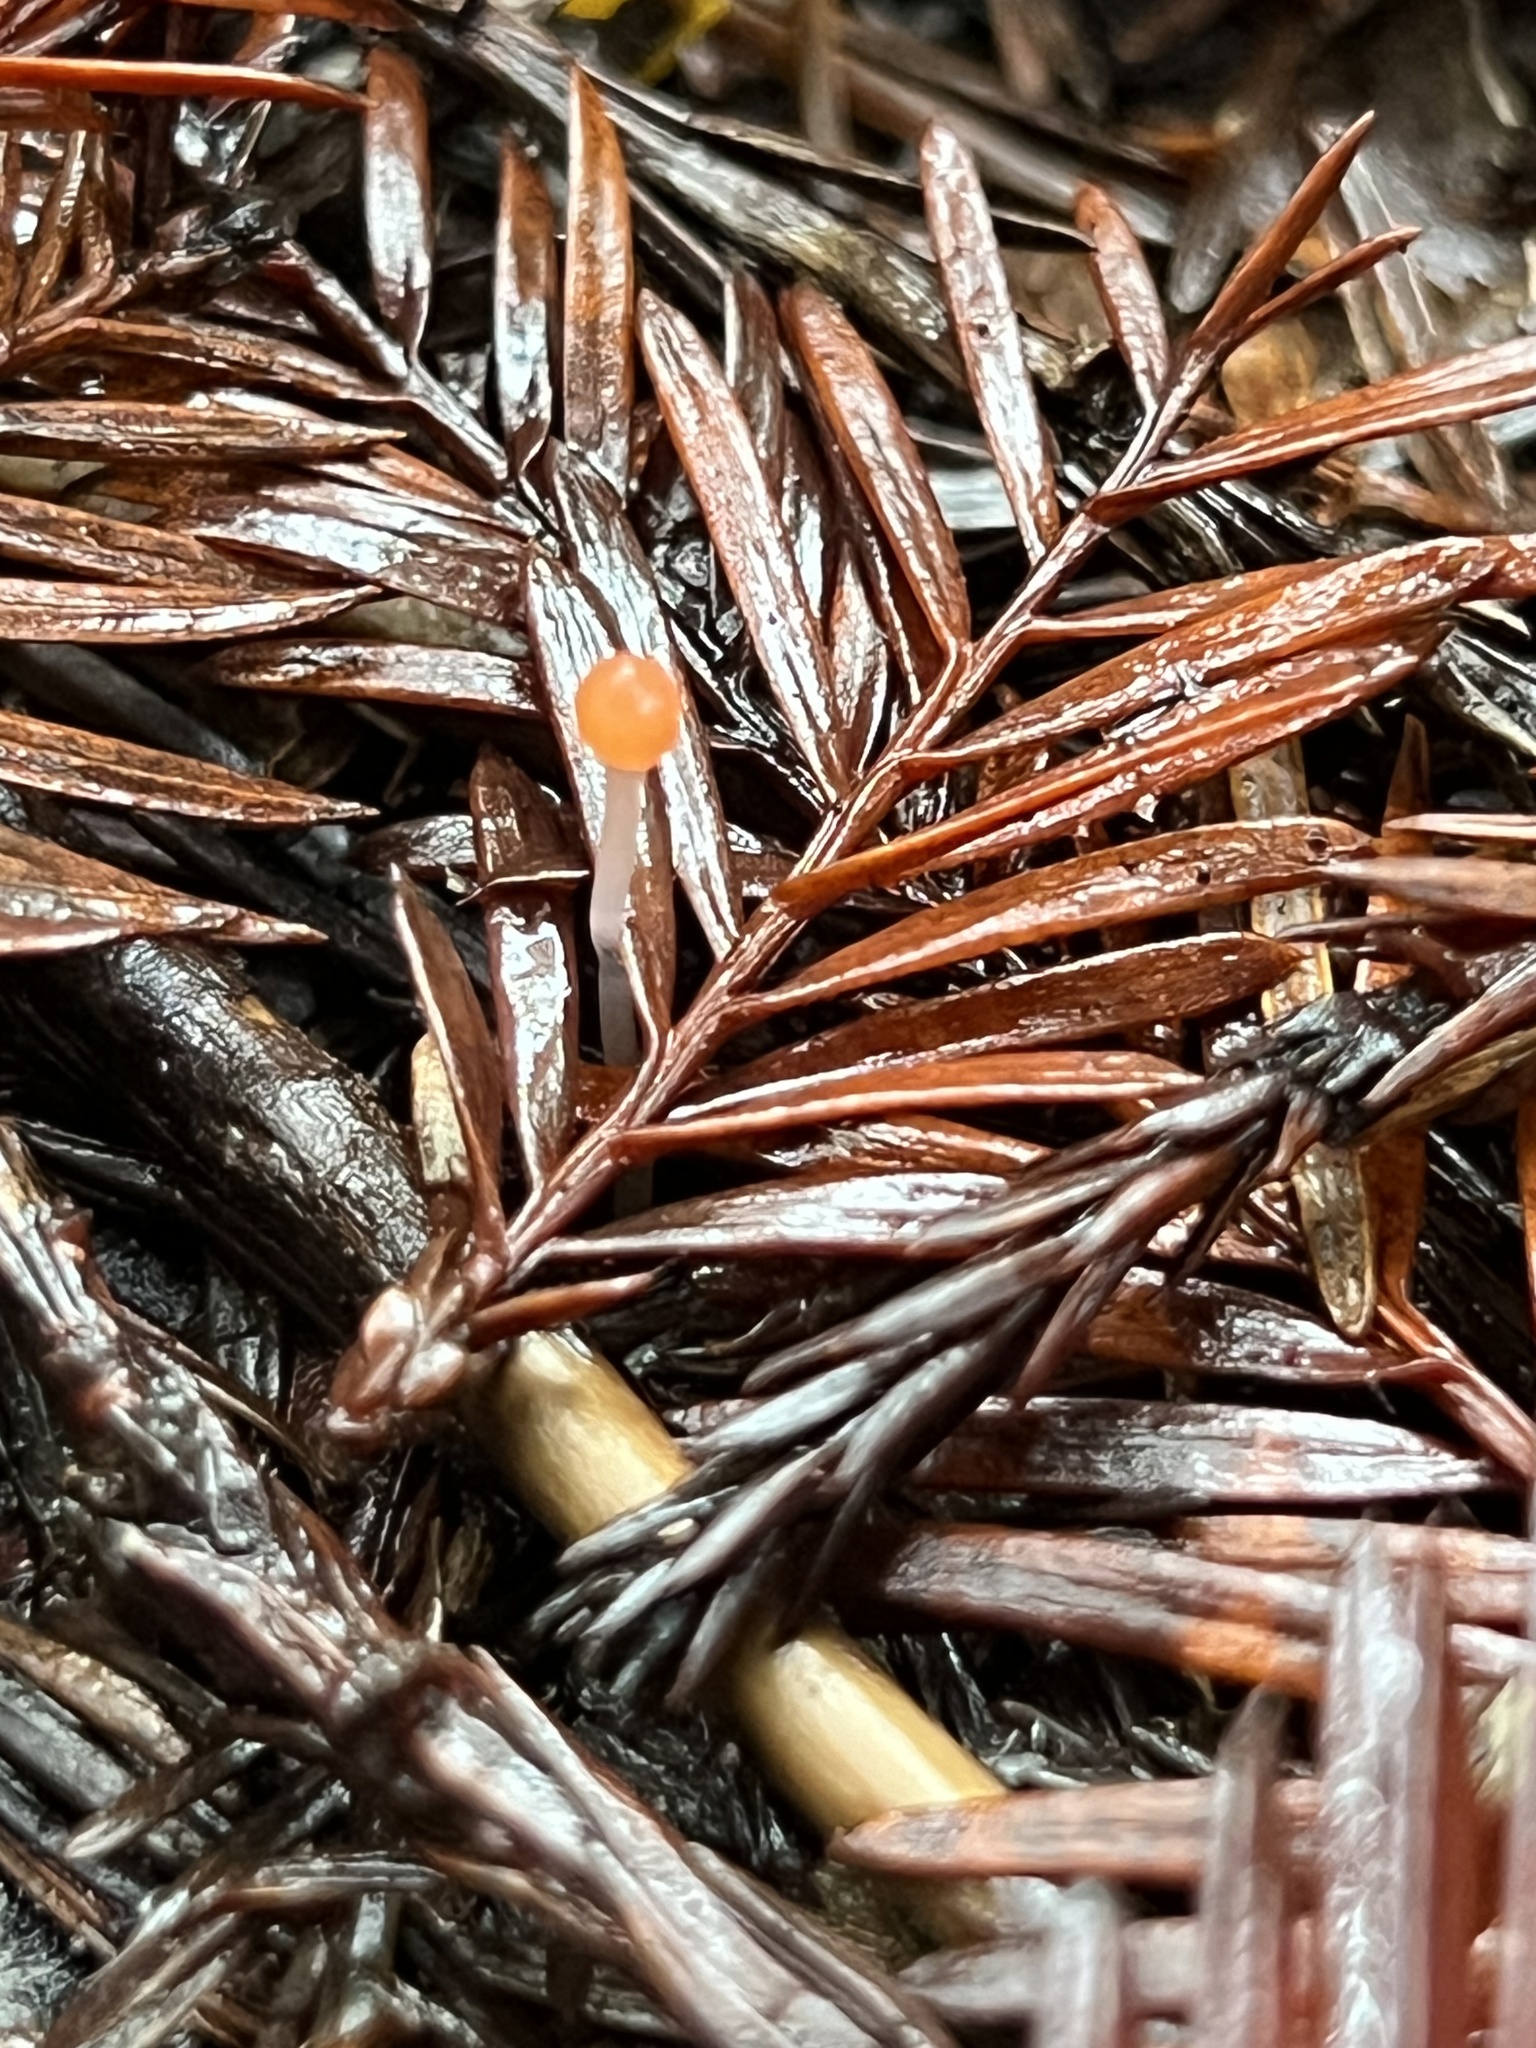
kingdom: Fungi
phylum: Basidiomycota
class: Agaricomycetes
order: Agaricales
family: Mycenaceae
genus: Atheniella
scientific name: Atheniella adonis
